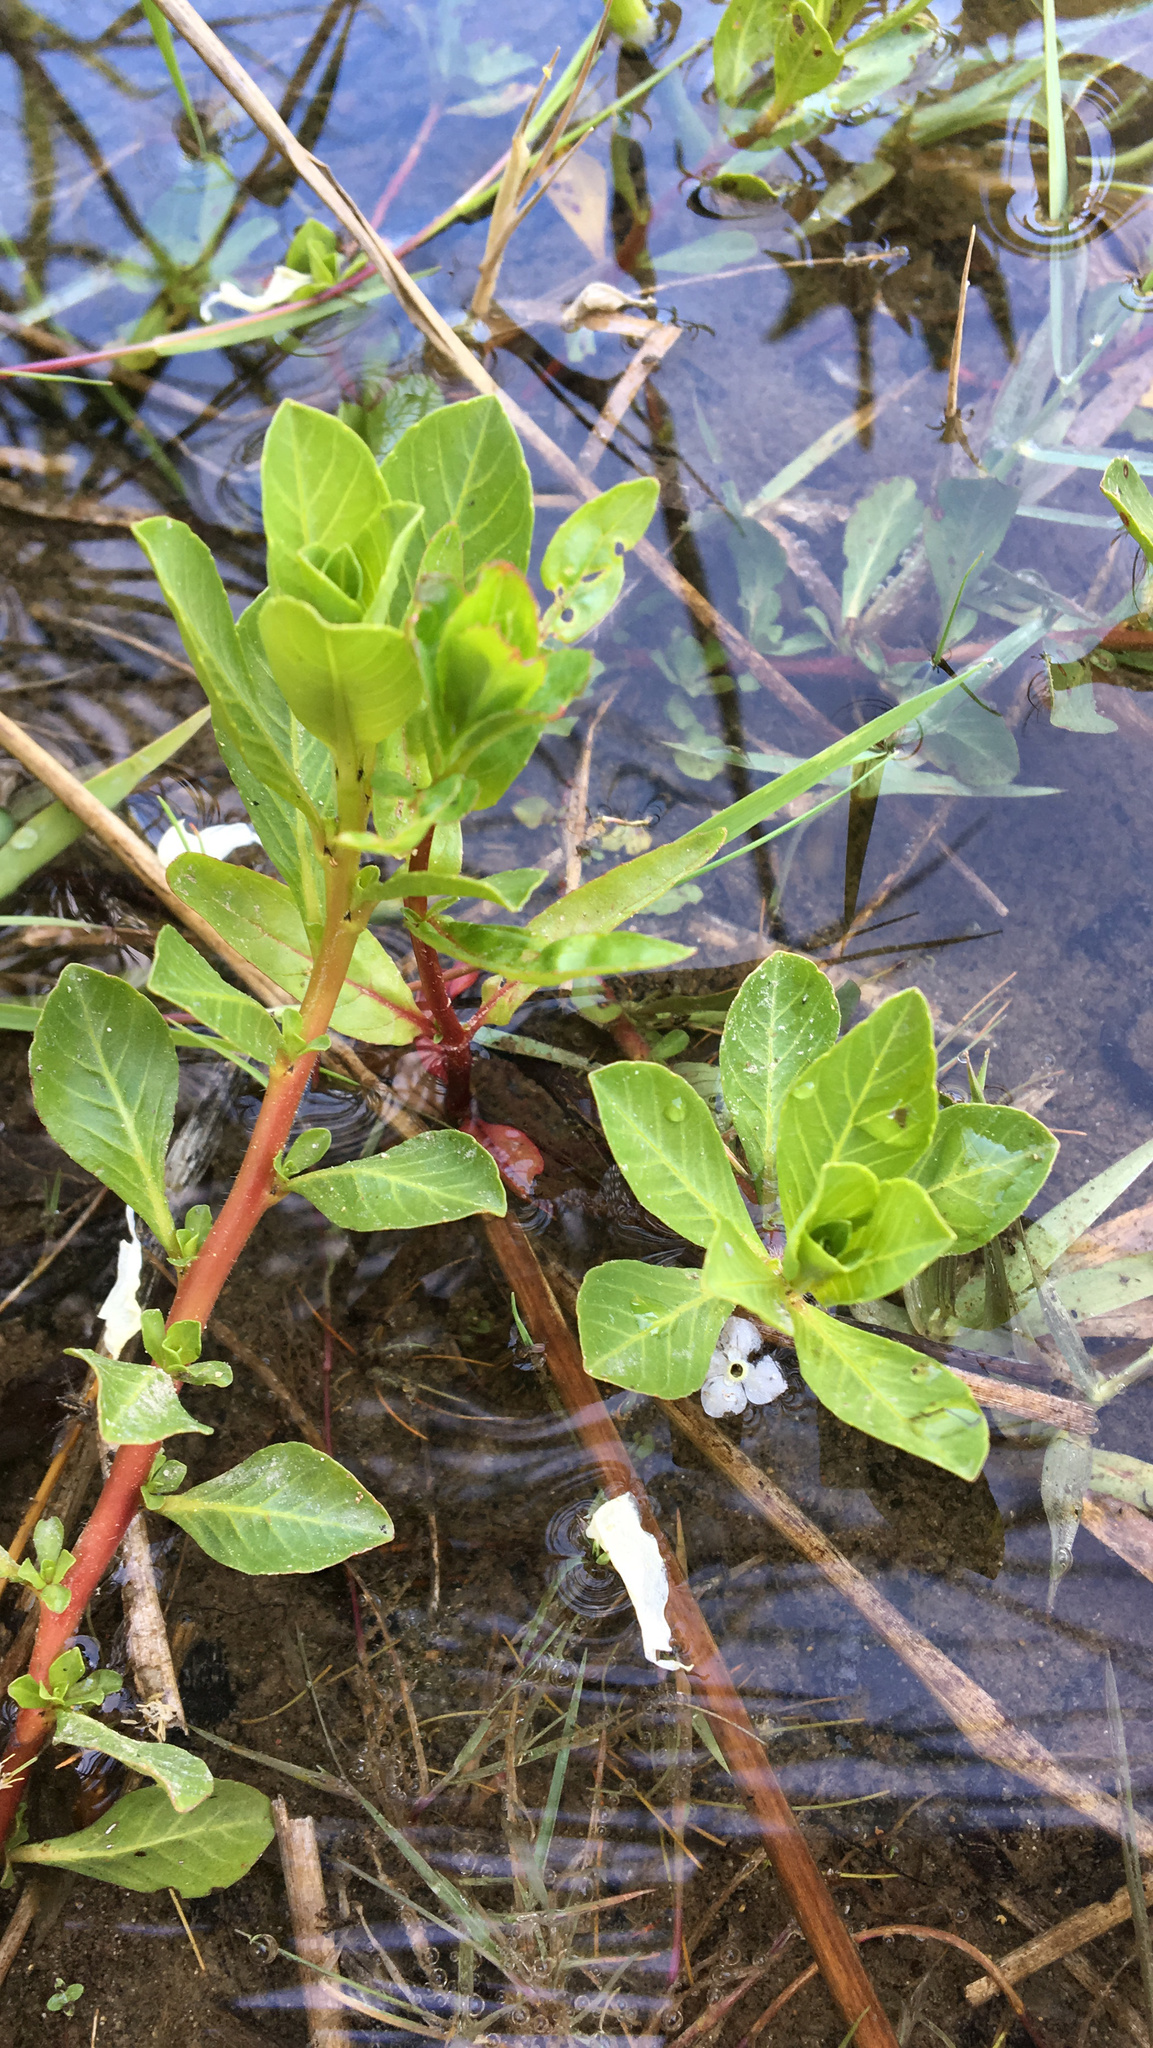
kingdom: Plantae
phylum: Tracheophyta
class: Magnoliopsida
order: Myrtales
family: Onagraceae
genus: Ludwigia
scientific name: Ludwigia peploides
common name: Floating primrose-willow
